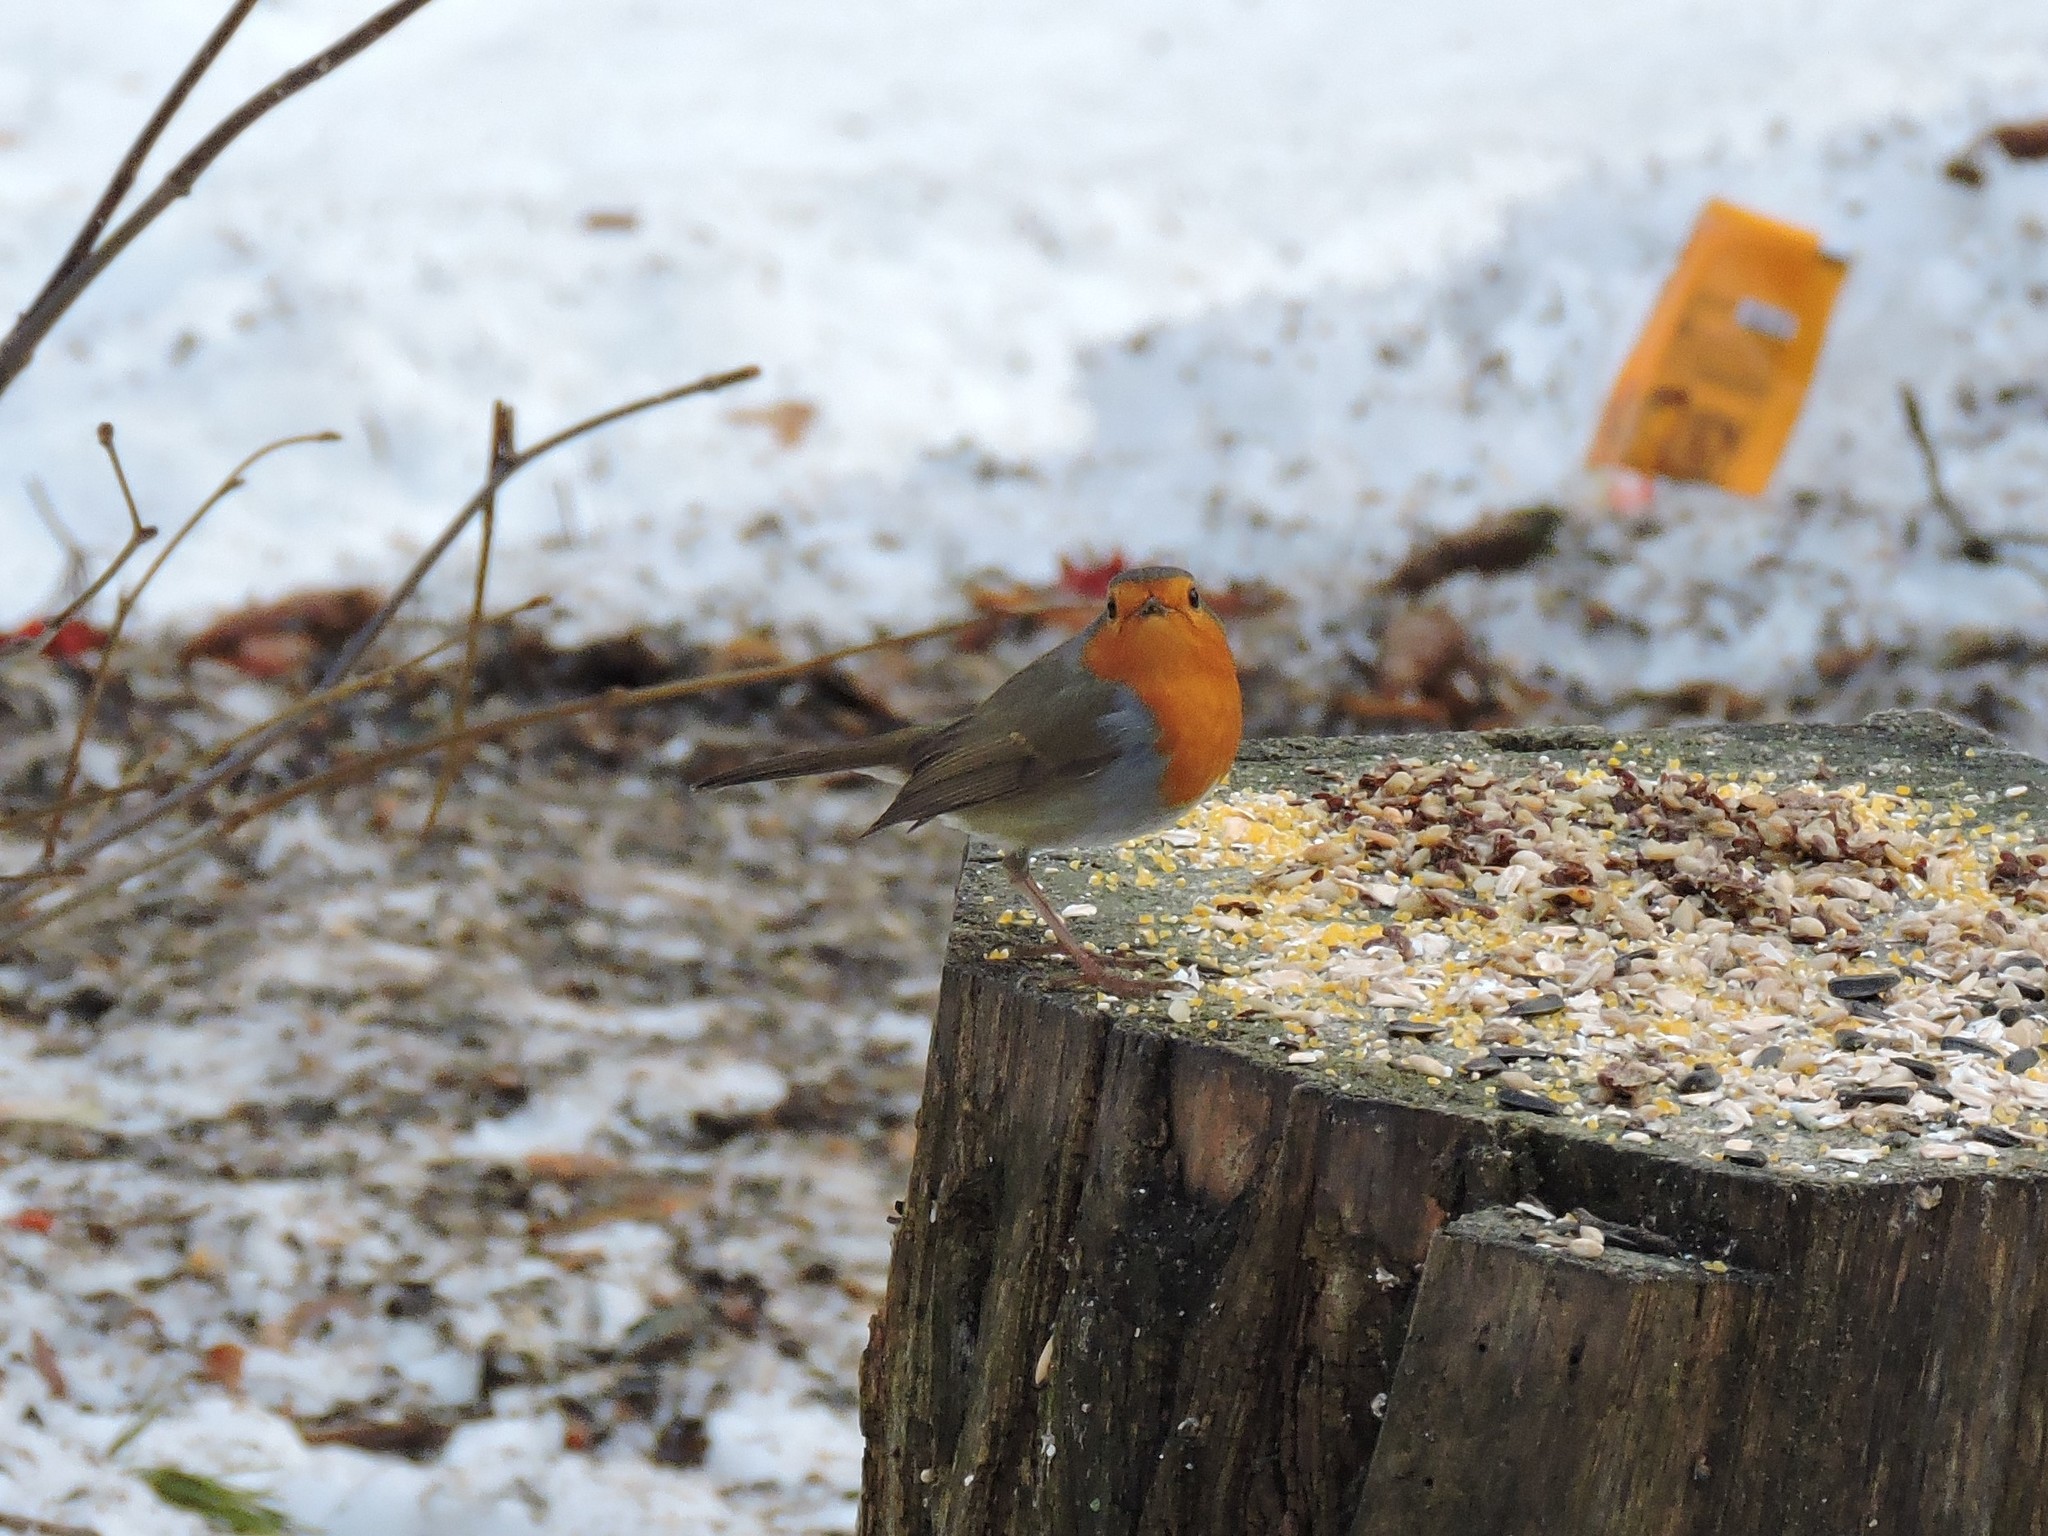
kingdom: Animalia
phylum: Chordata
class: Aves
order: Passeriformes
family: Muscicapidae
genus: Erithacus
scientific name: Erithacus rubecula
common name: European robin
